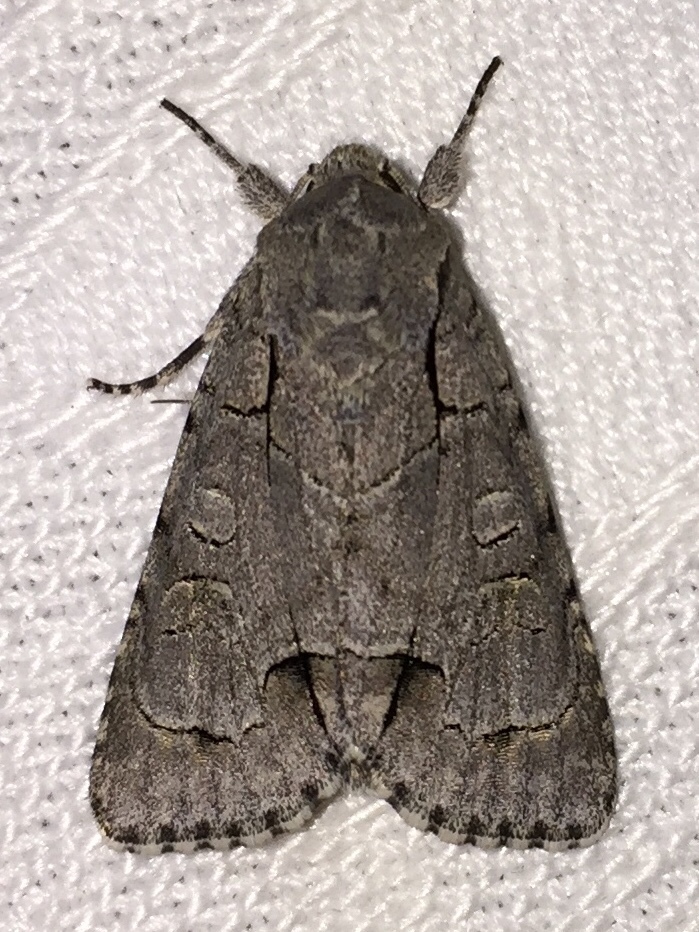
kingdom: Animalia
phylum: Arthropoda
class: Insecta
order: Lepidoptera
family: Noctuidae
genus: Acronicta
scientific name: Acronicta radcliffei
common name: Radcliffe's dagger
